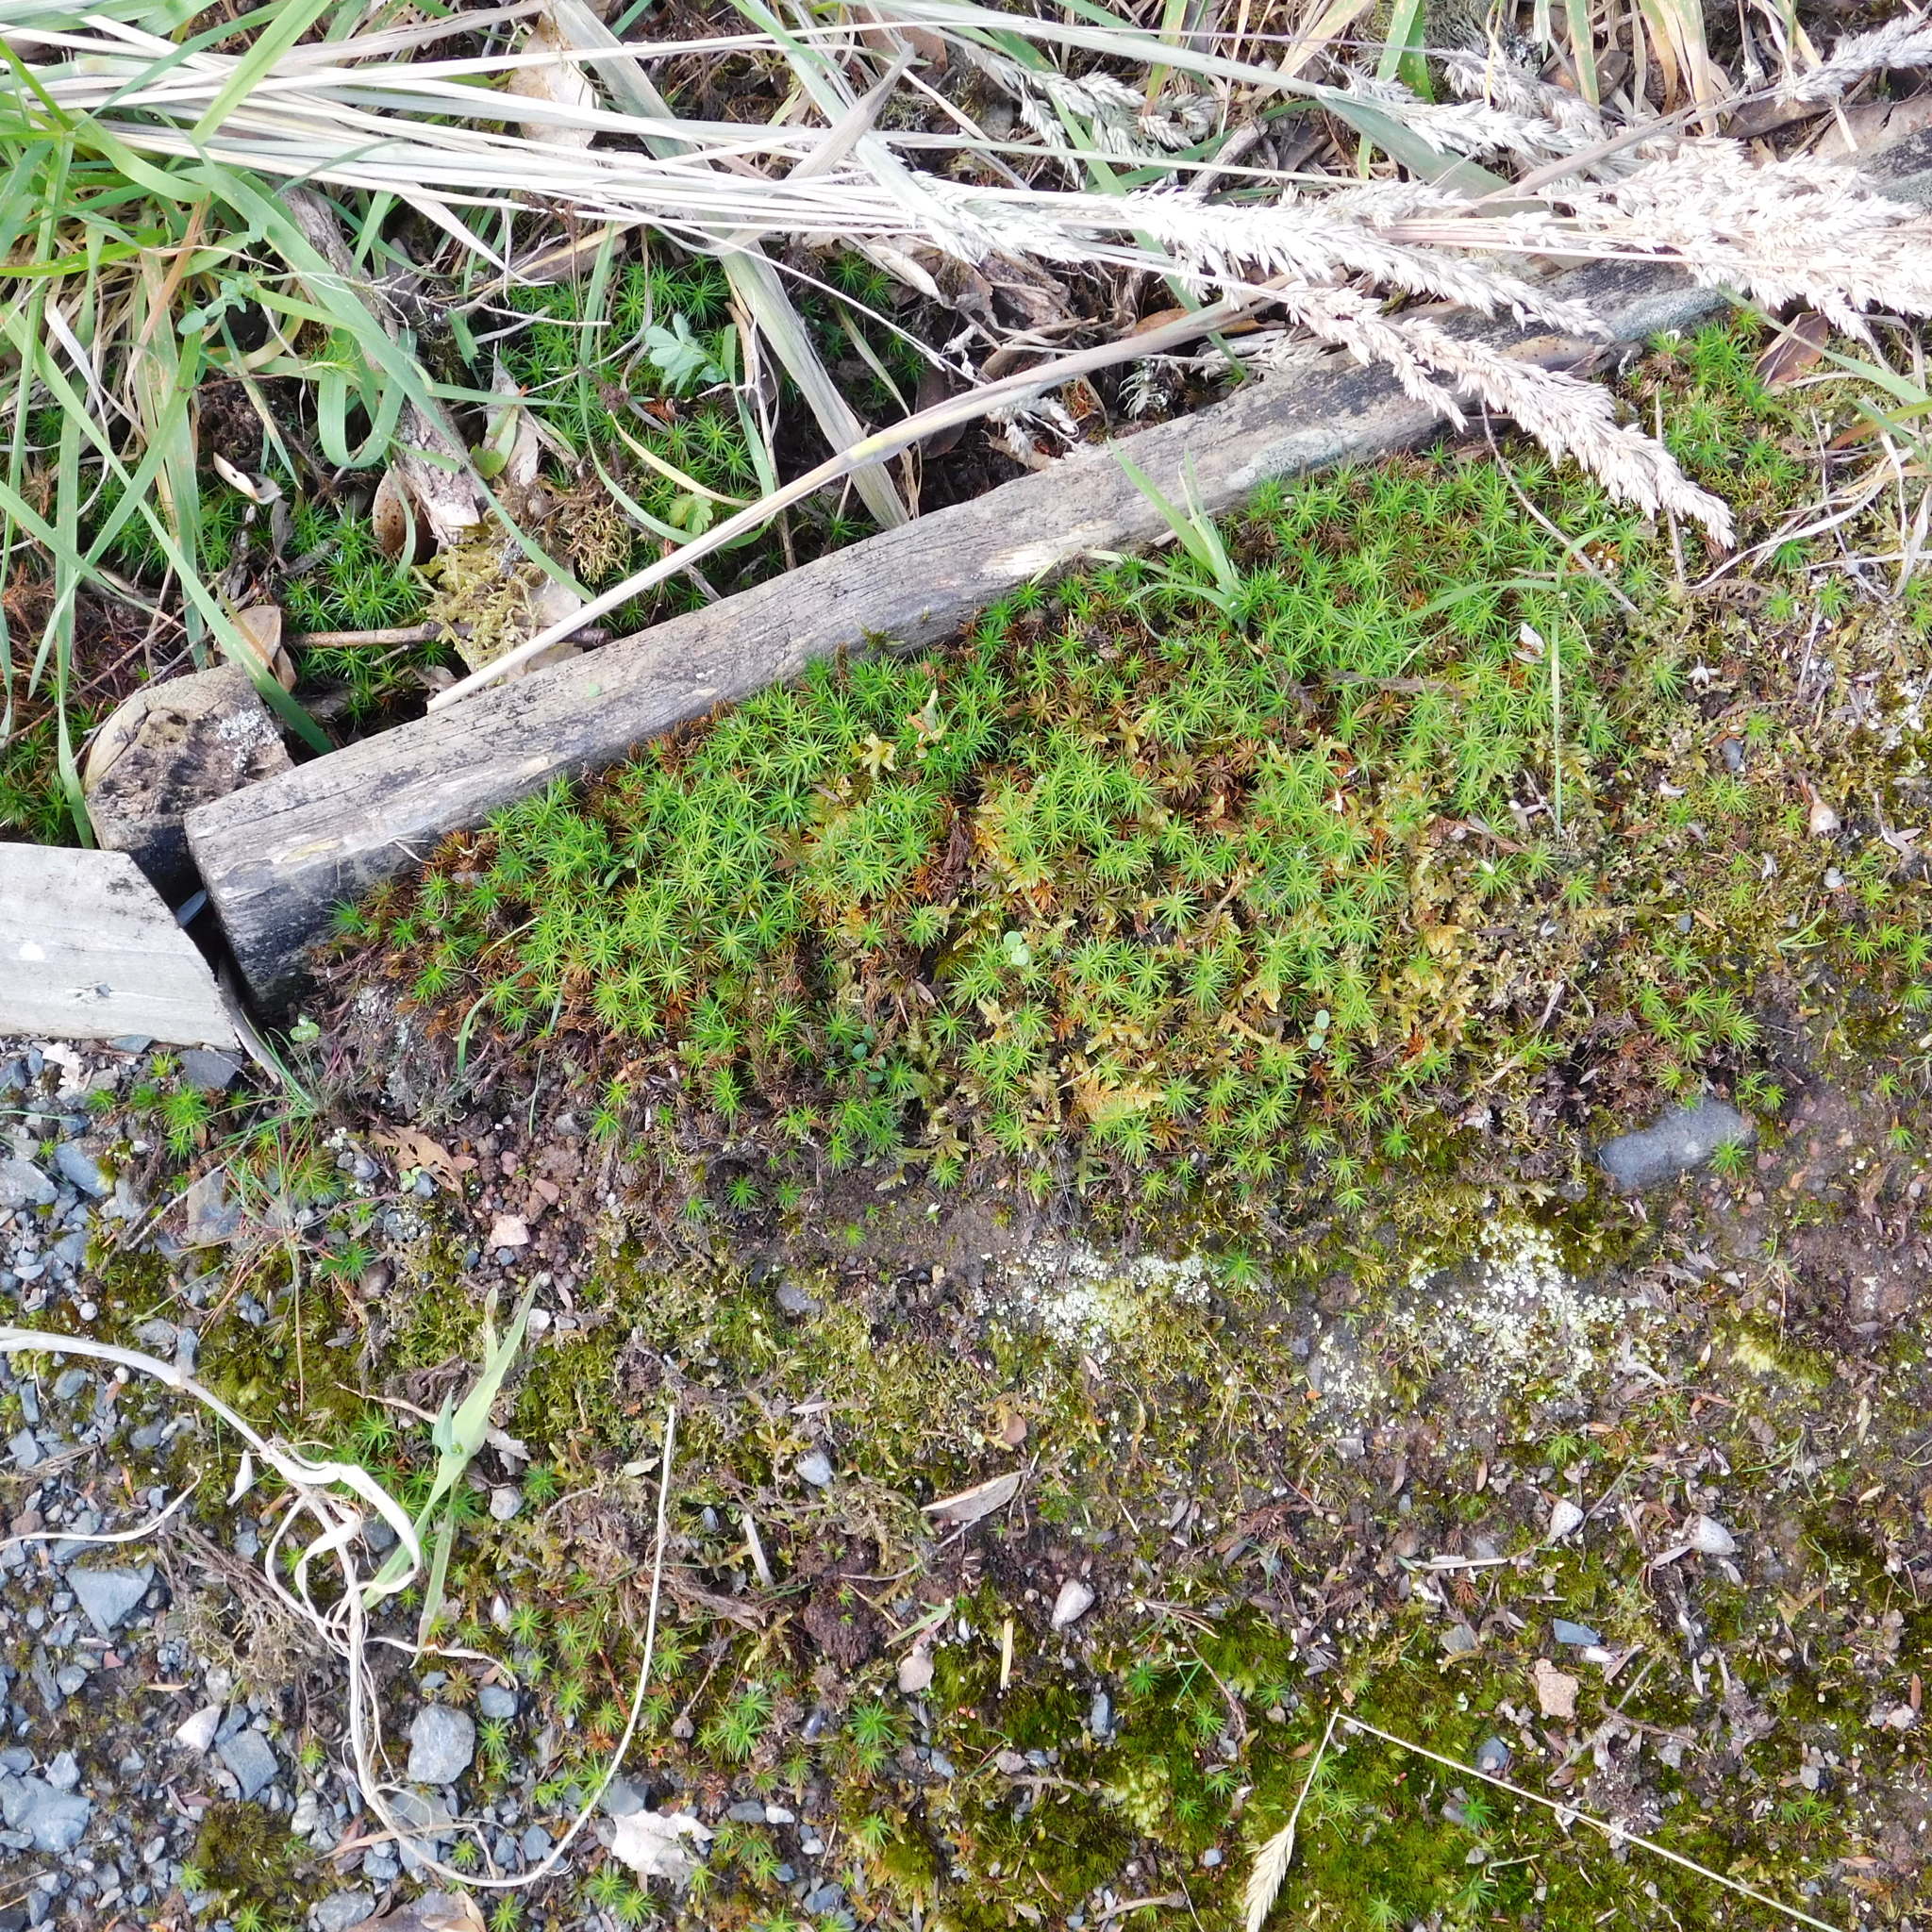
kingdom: Plantae
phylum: Bryophyta
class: Polytrichopsida
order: Polytrichales
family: Polytrichaceae
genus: Polytrichadelphus
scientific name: Polytrichadelphus magellanicus
